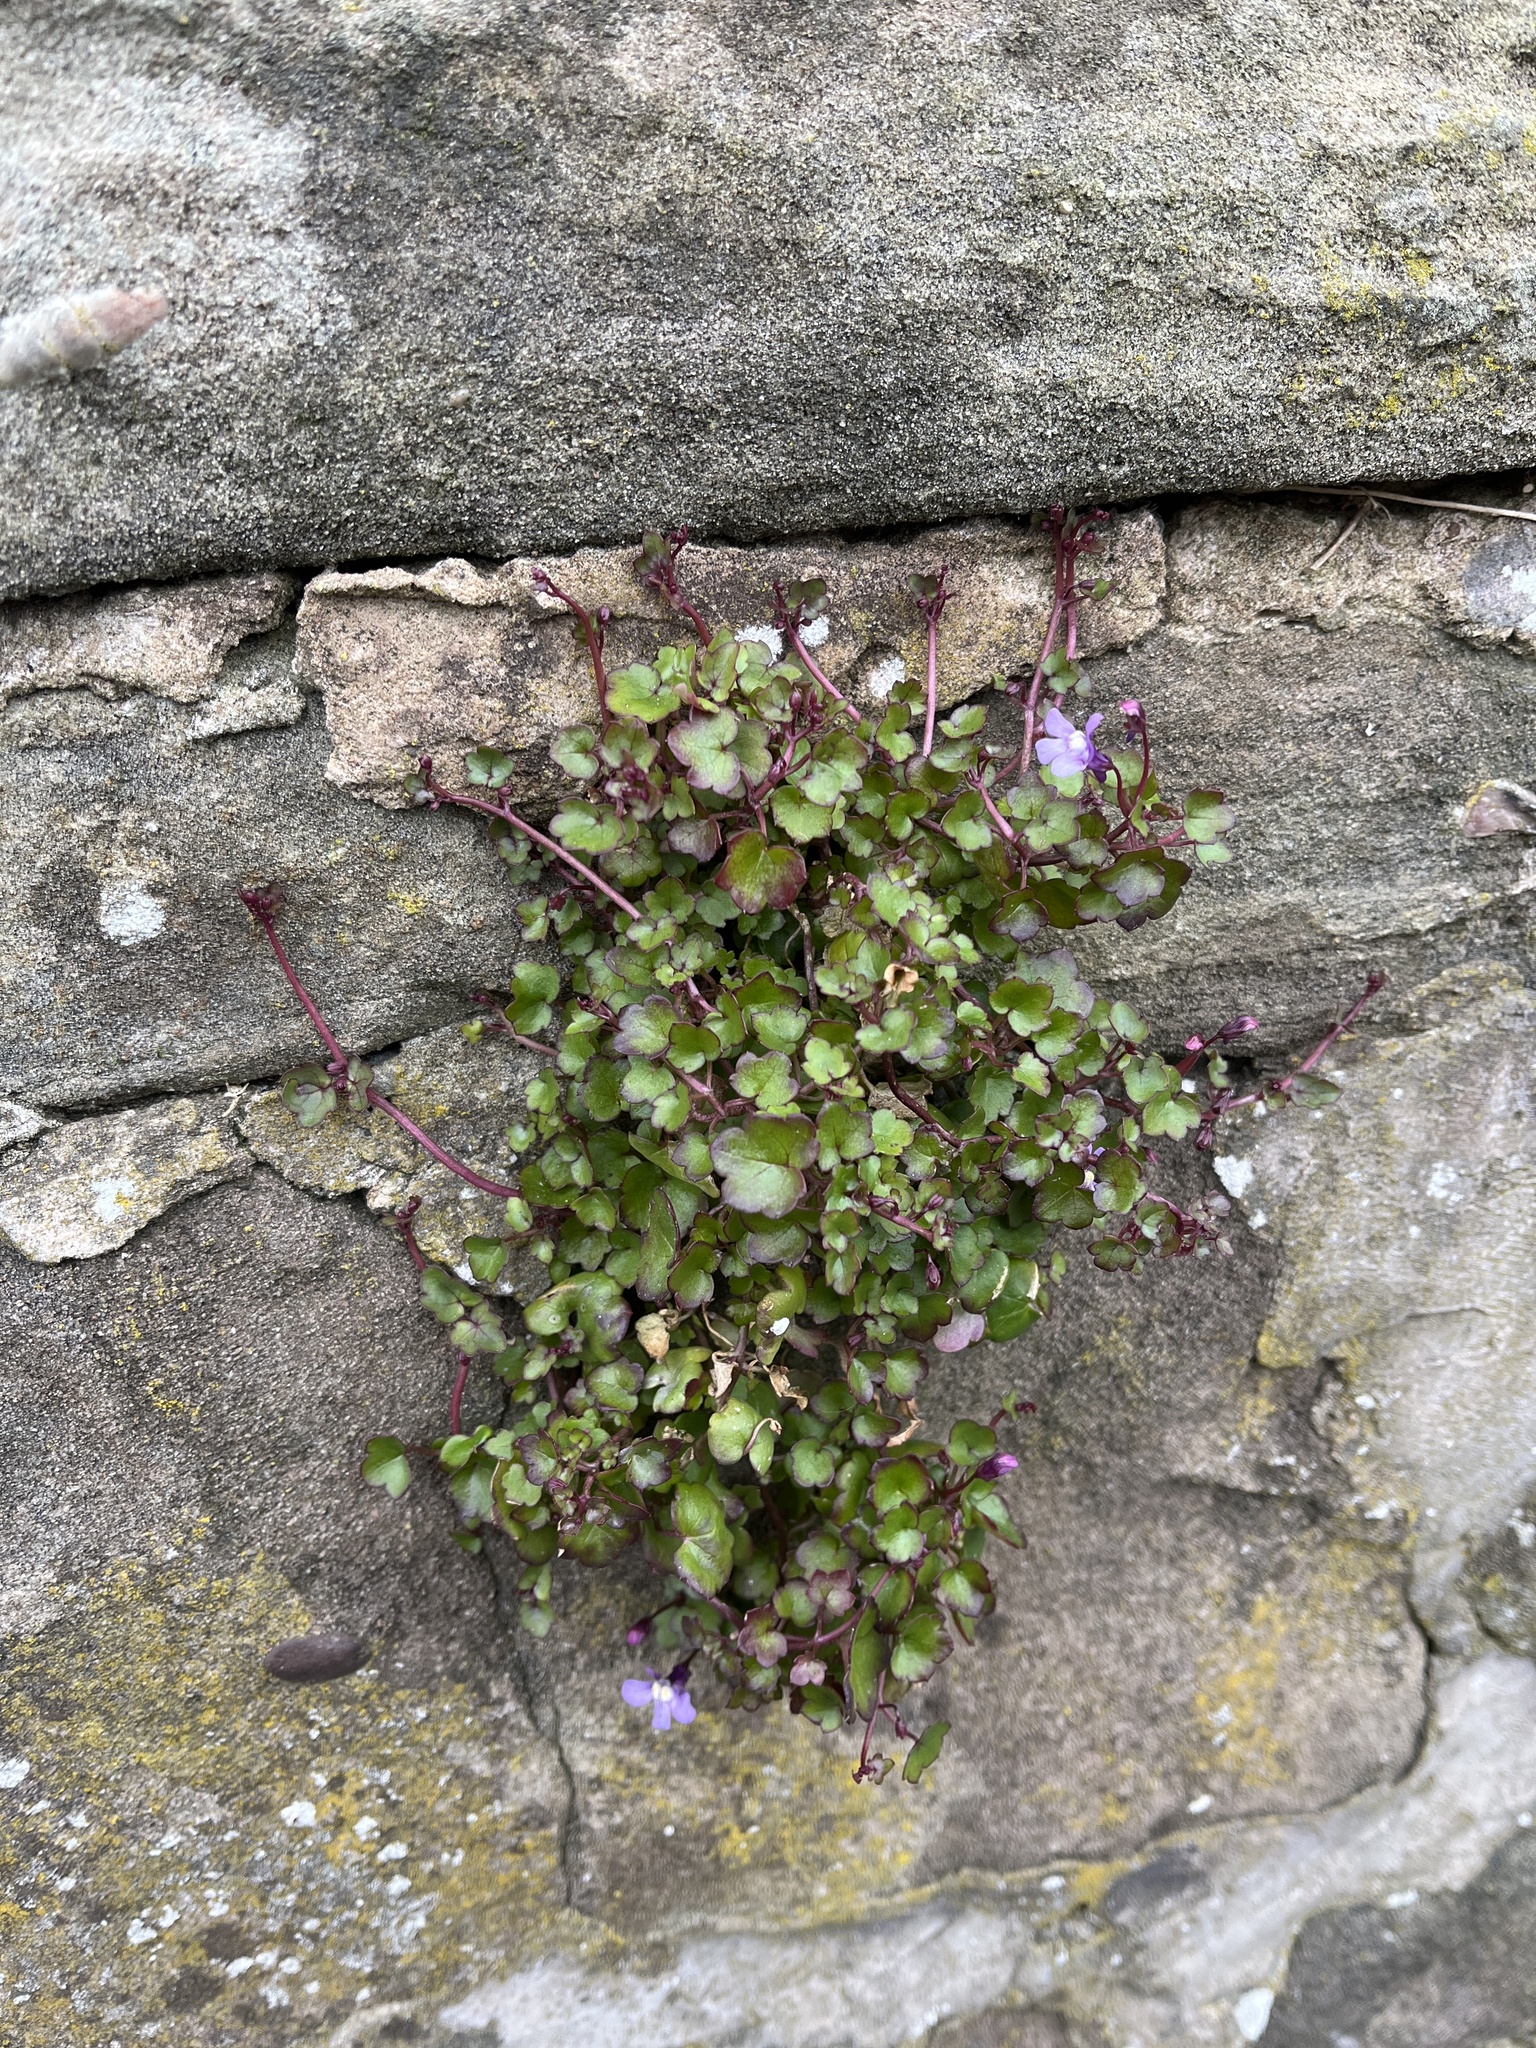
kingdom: Plantae
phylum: Tracheophyta
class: Magnoliopsida
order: Lamiales
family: Plantaginaceae
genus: Cymbalaria
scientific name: Cymbalaria muralis
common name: Ivy-leaved toadflax
